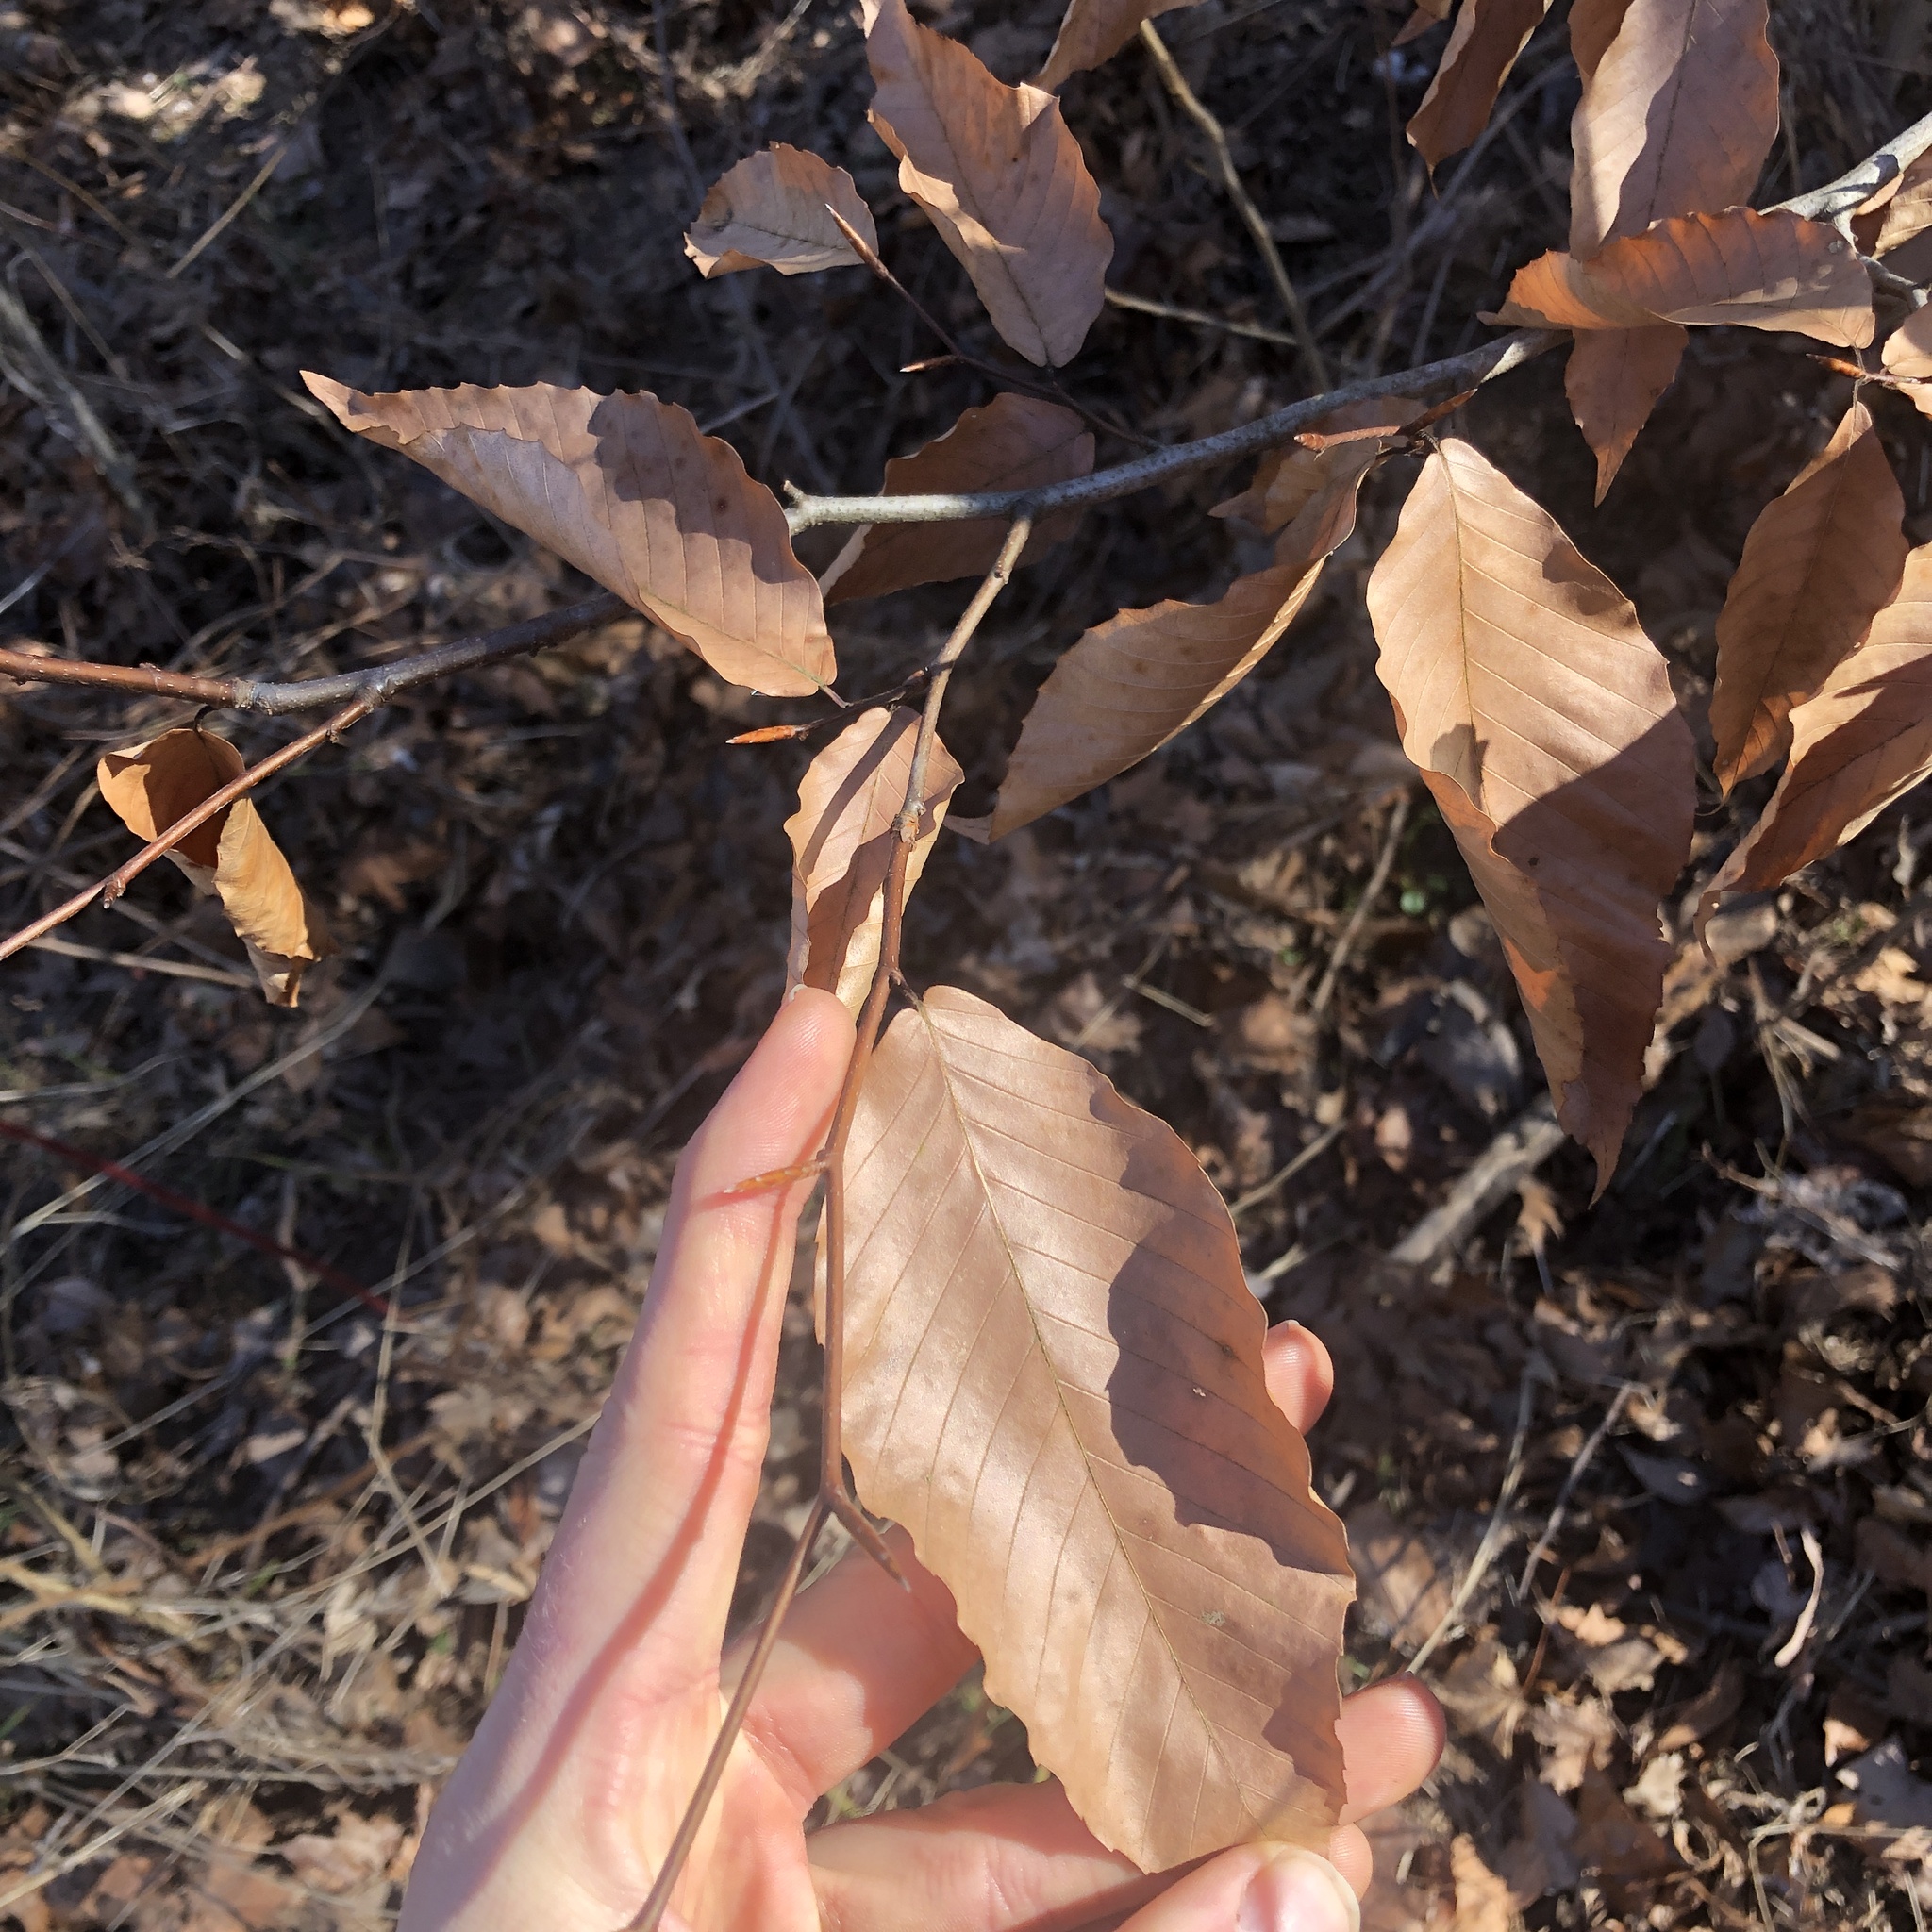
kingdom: Plantae
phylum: Tracheophyta
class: Magnoliopsida
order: Fagales
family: Fagaceae
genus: Fagus
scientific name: Fagus grandifolia
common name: American beech
